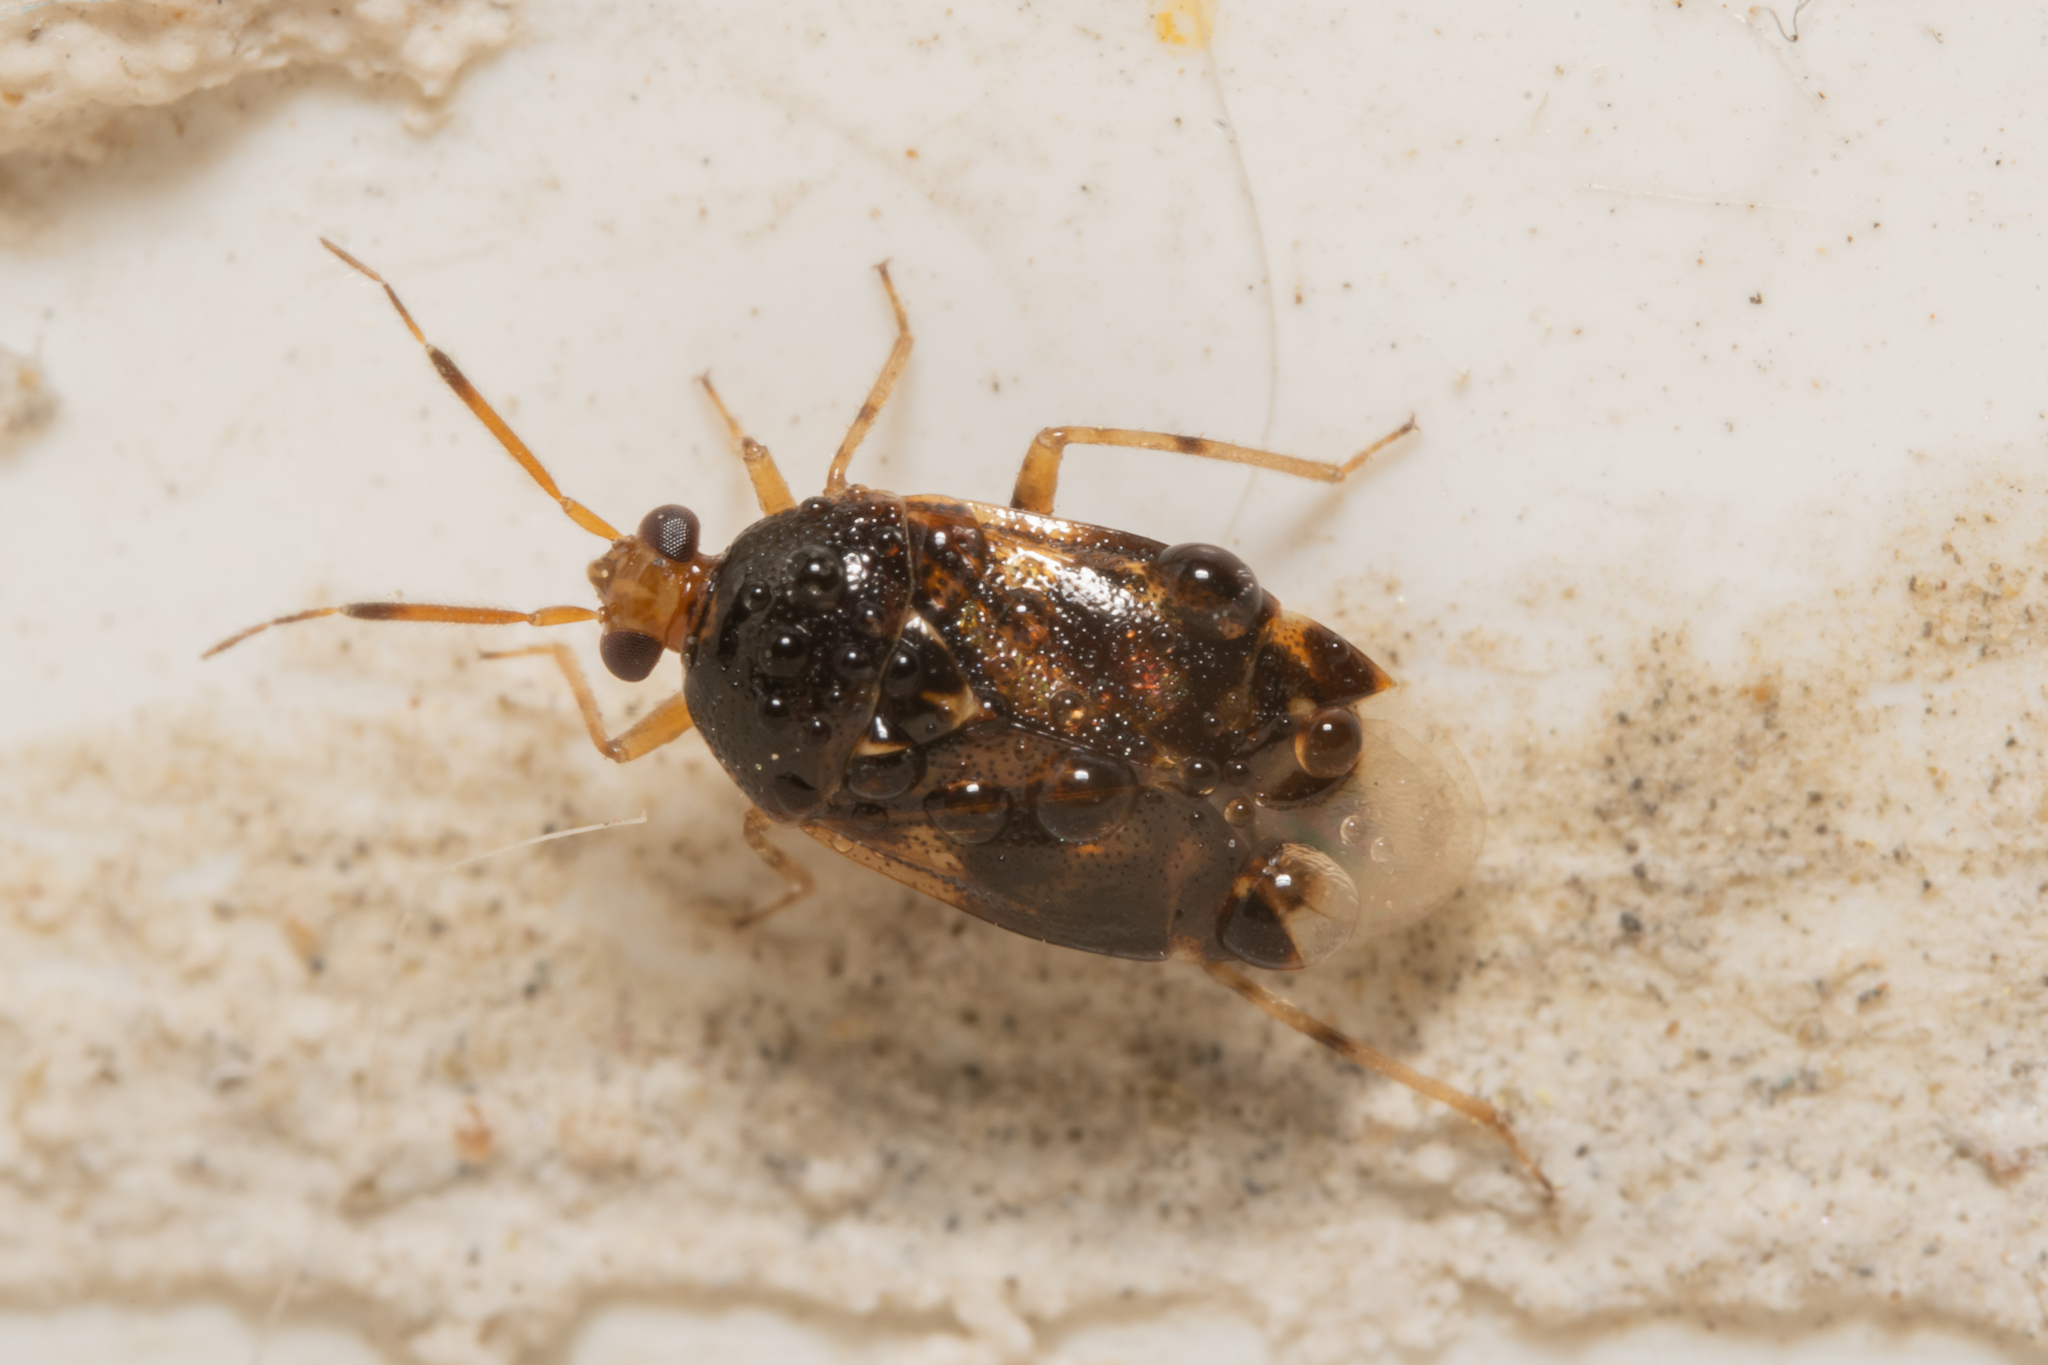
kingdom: Animalia
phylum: Arthropoda
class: Insecta
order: Hemiptera
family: Miridae
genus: Deraeocoris
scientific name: Deraeocoris lutescens
